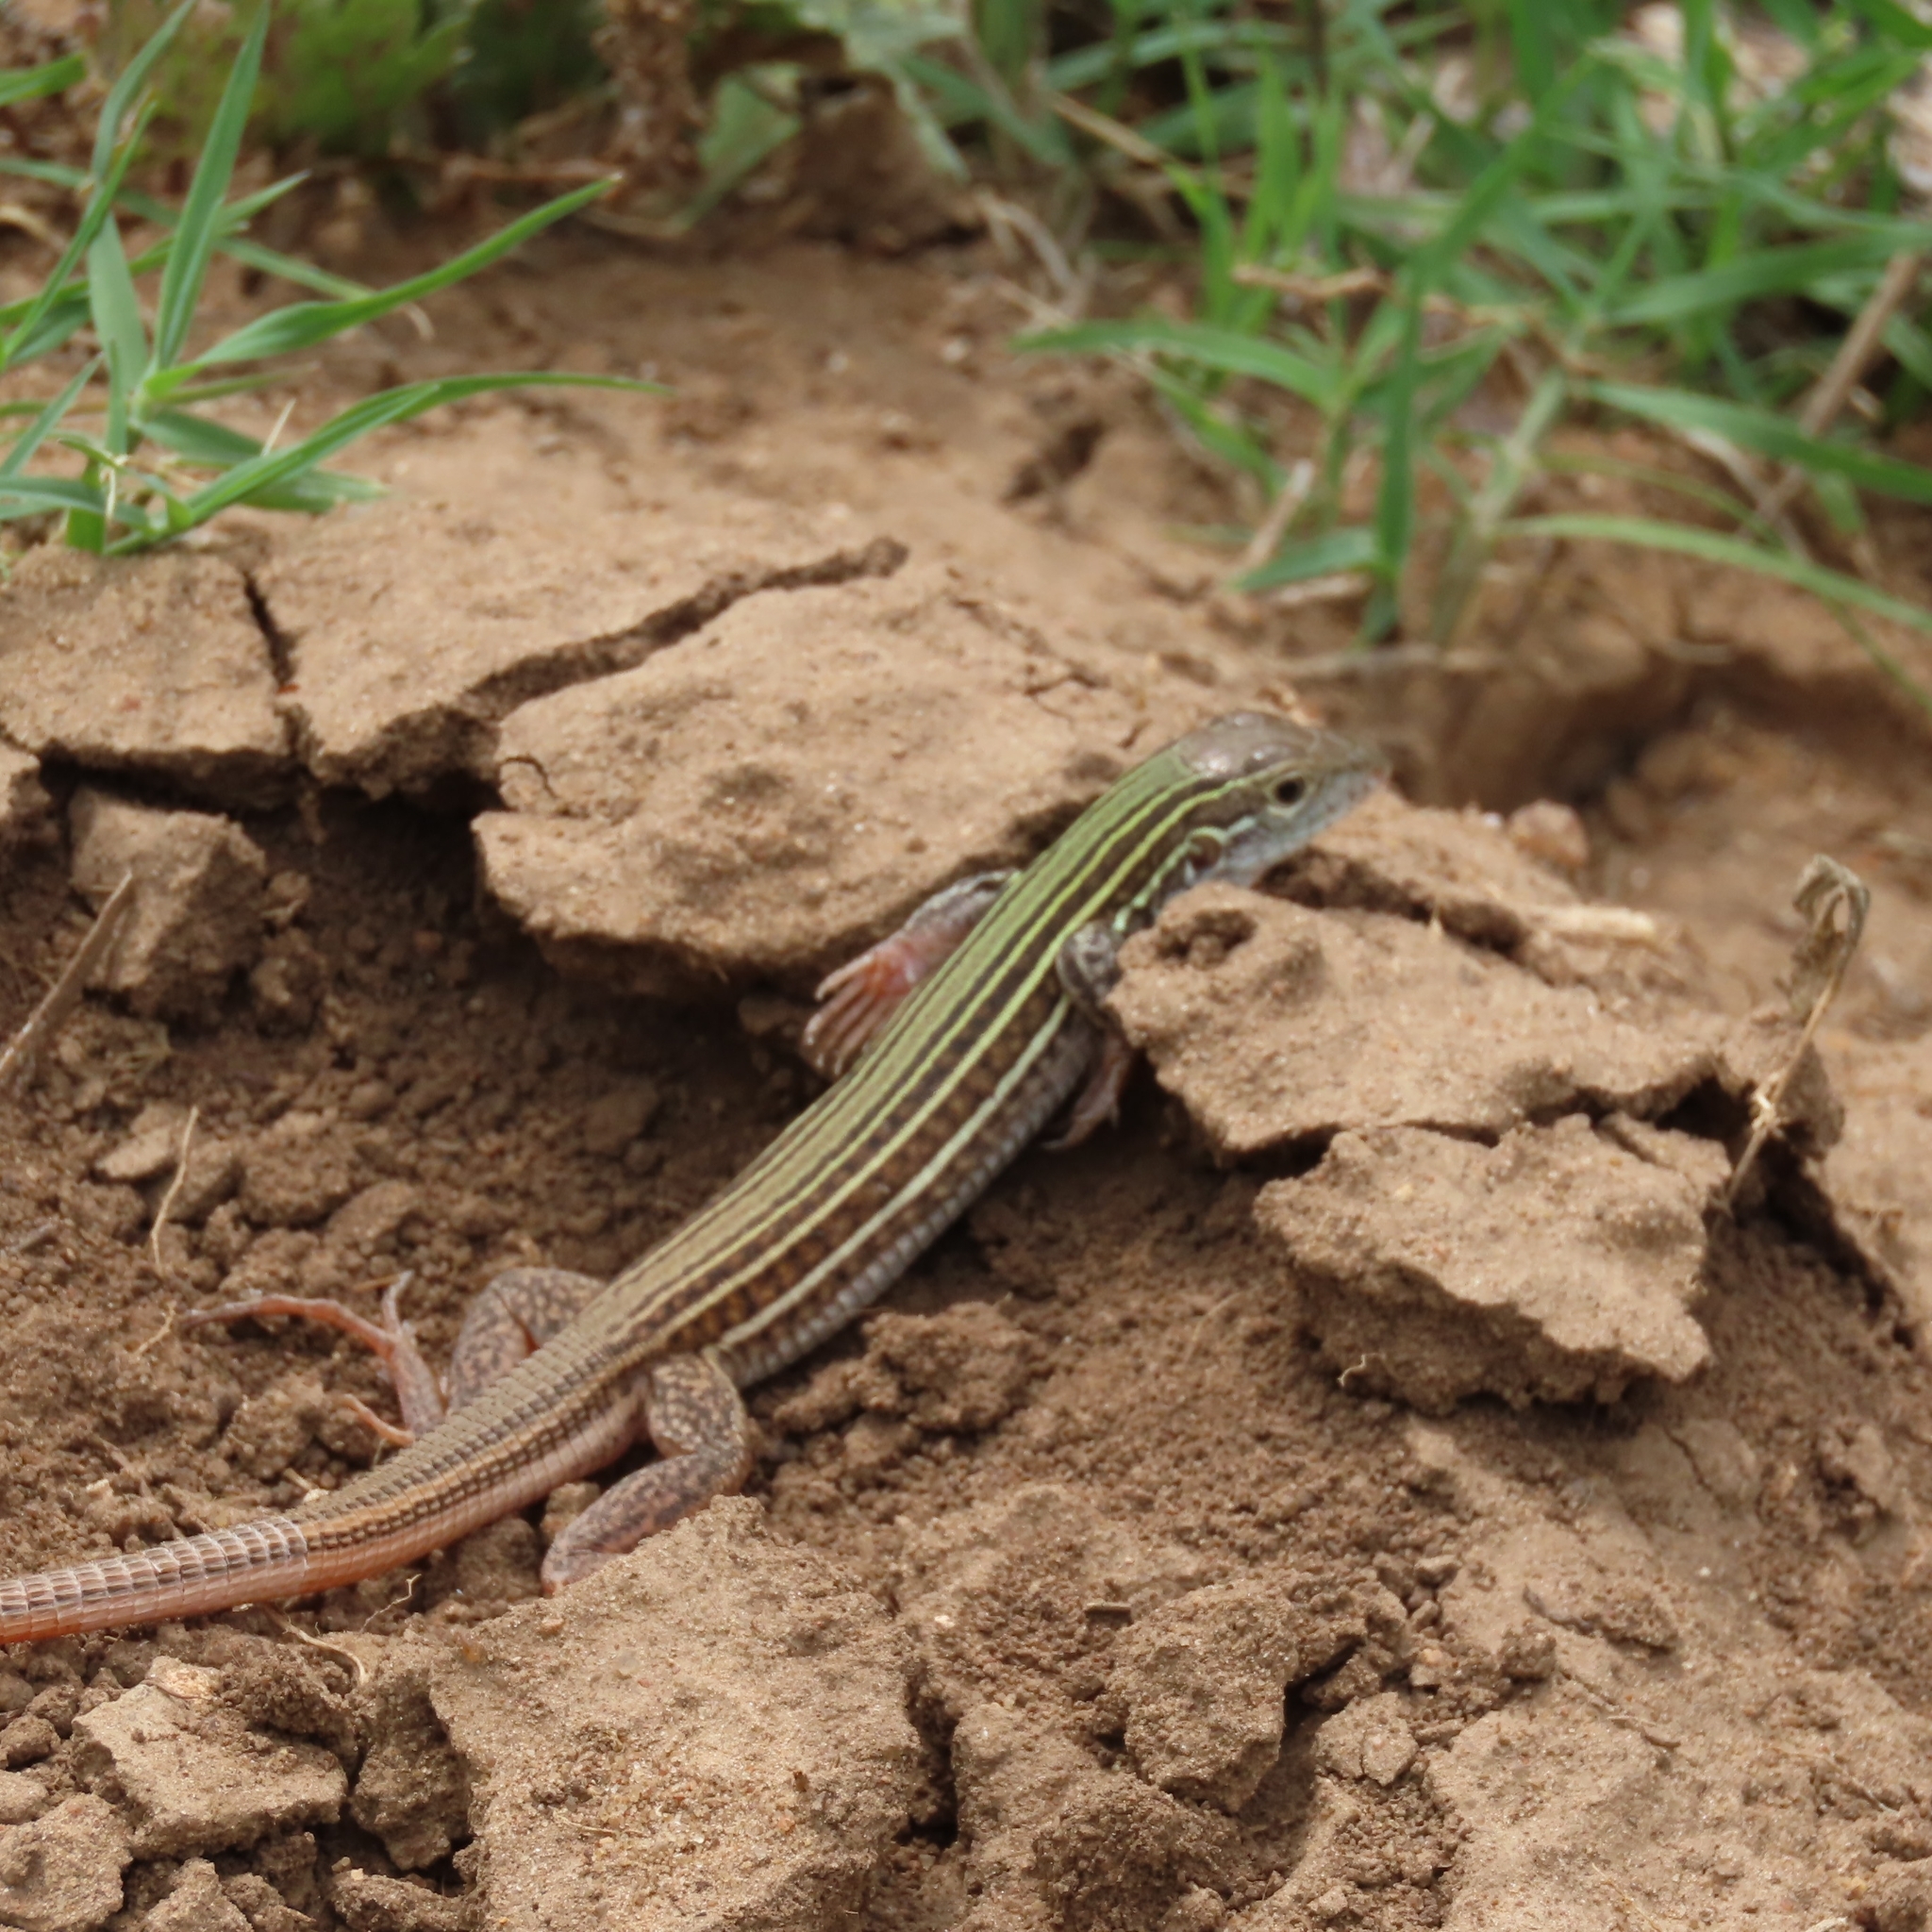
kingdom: Animalia
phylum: Chordata
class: Squamata
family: Teiidae
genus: Aspidoscelis
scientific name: Aspidoscelis gularis
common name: Eastern spotted whiptail
